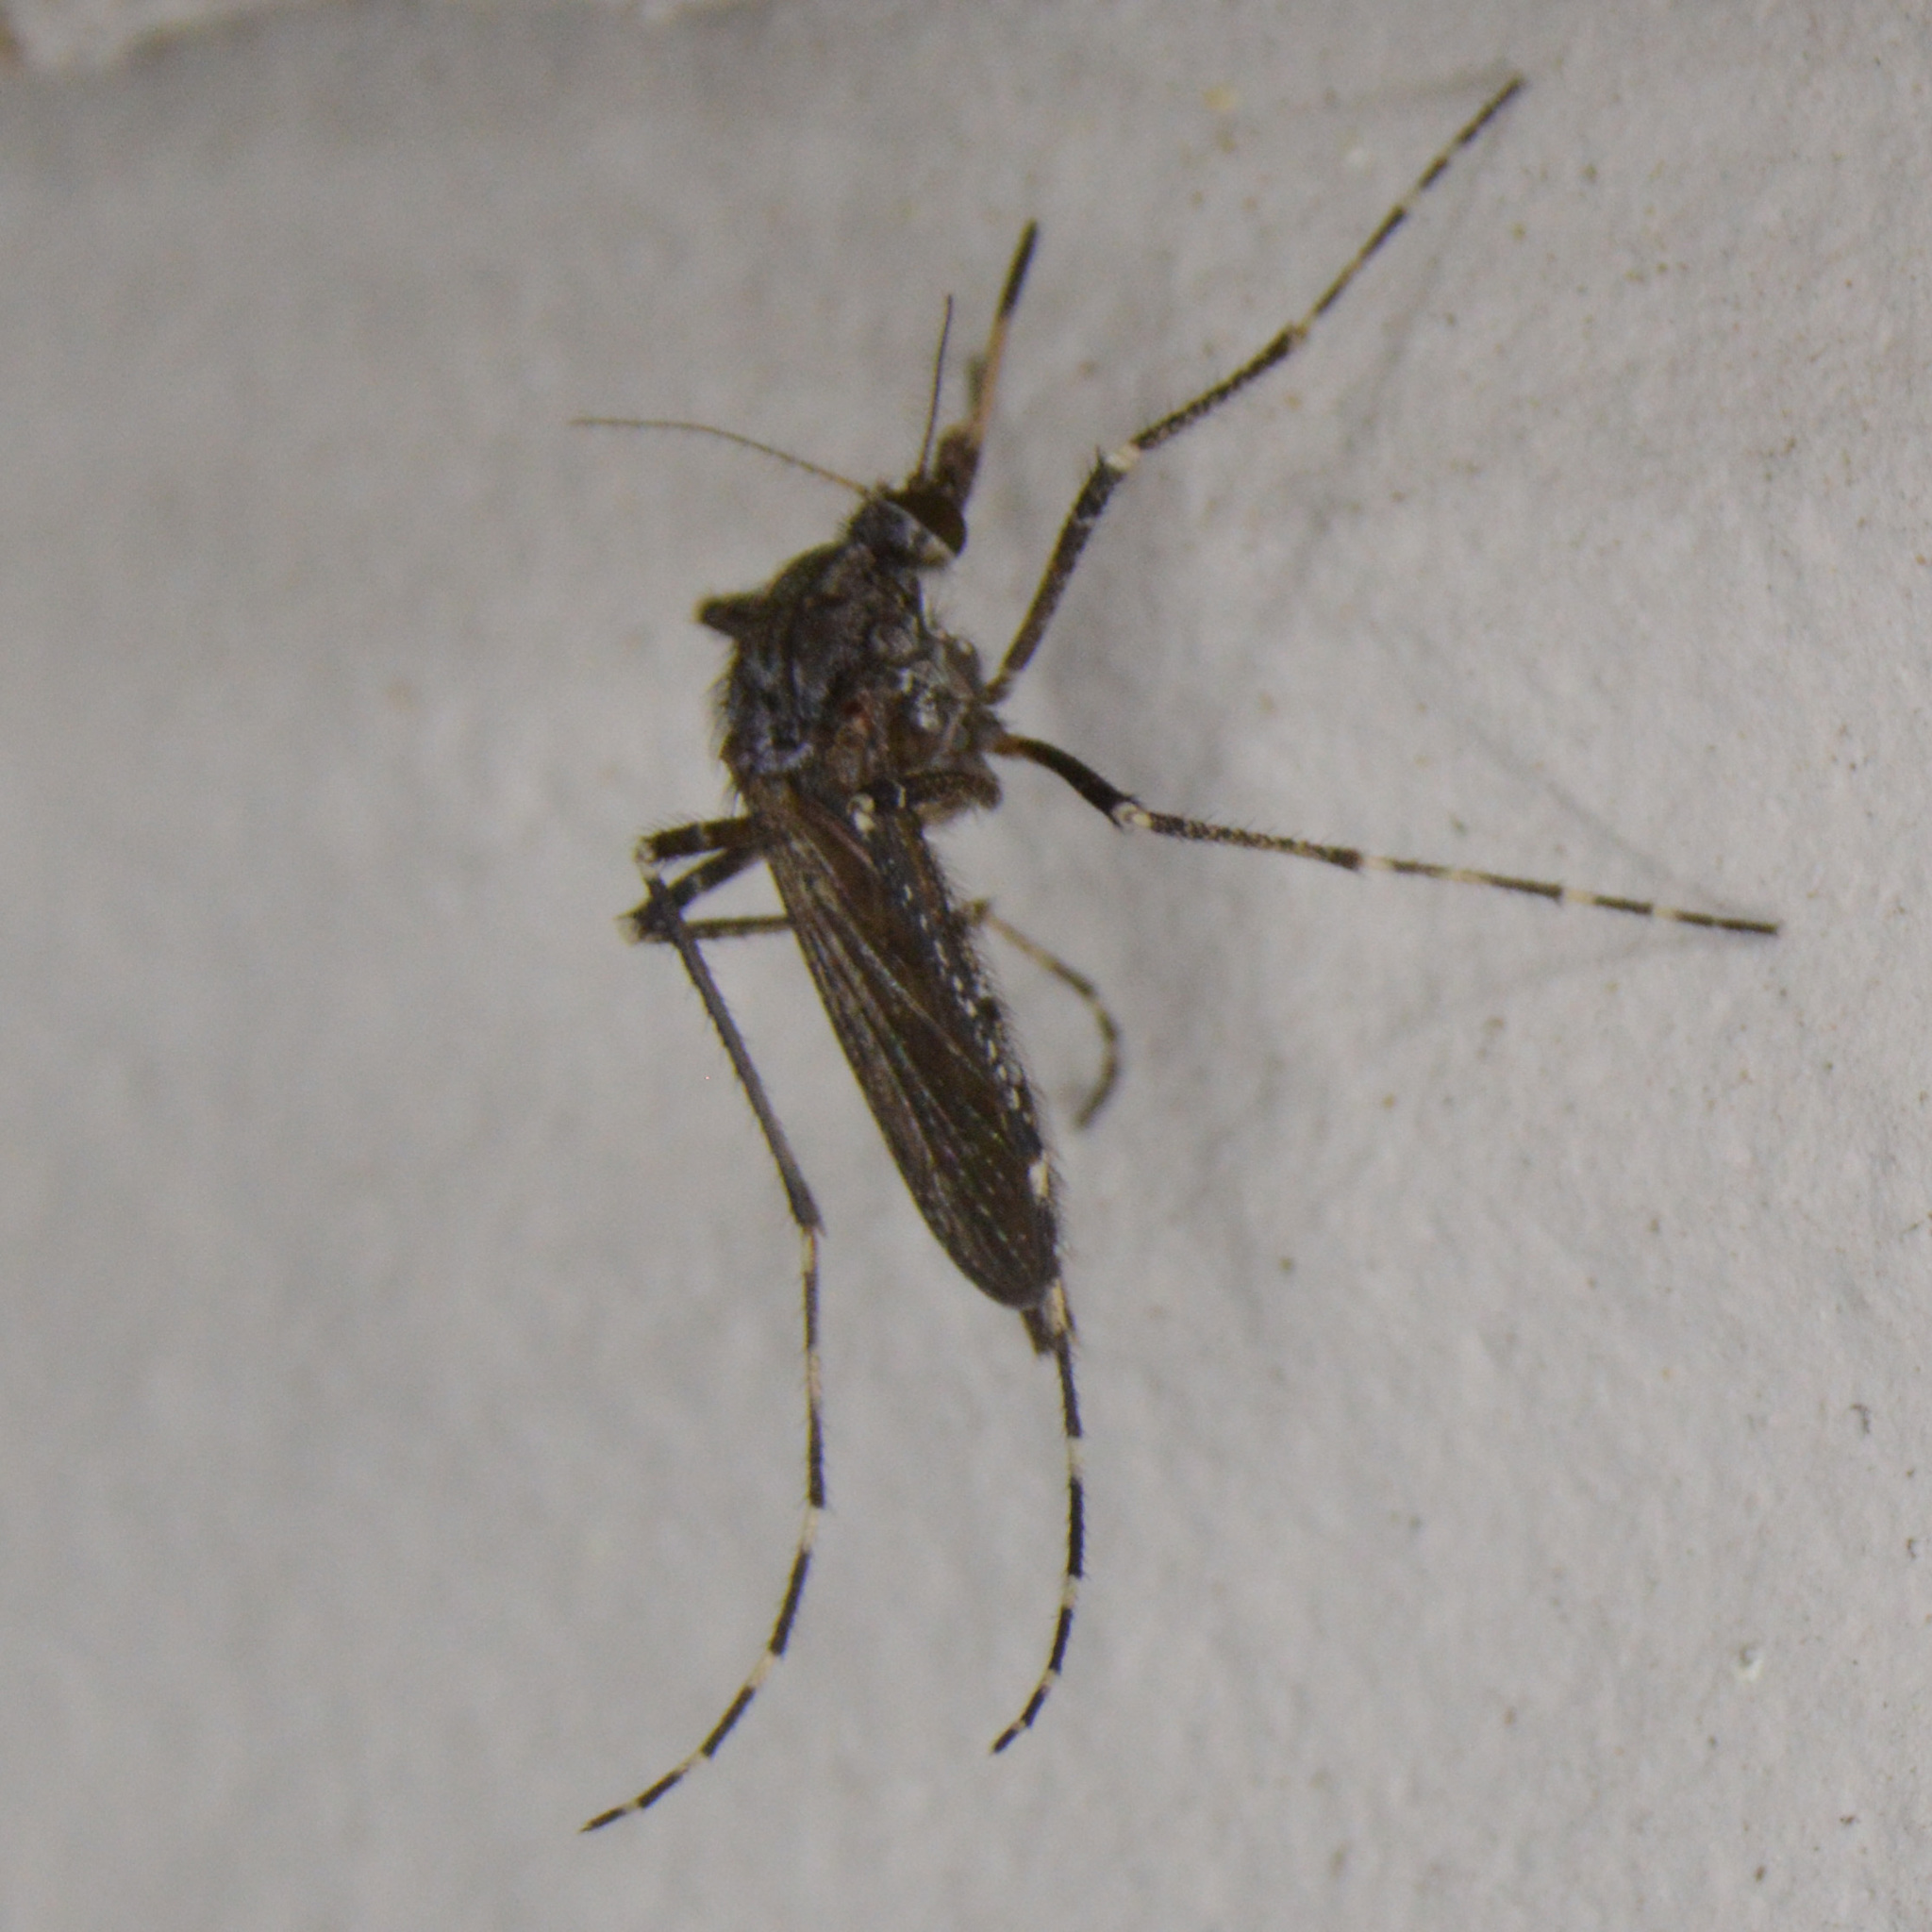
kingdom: Animalia
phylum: Arthropoda
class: Insecta
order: Diptera
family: Culicidae
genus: Psorophora
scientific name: Psorophora columbiae
